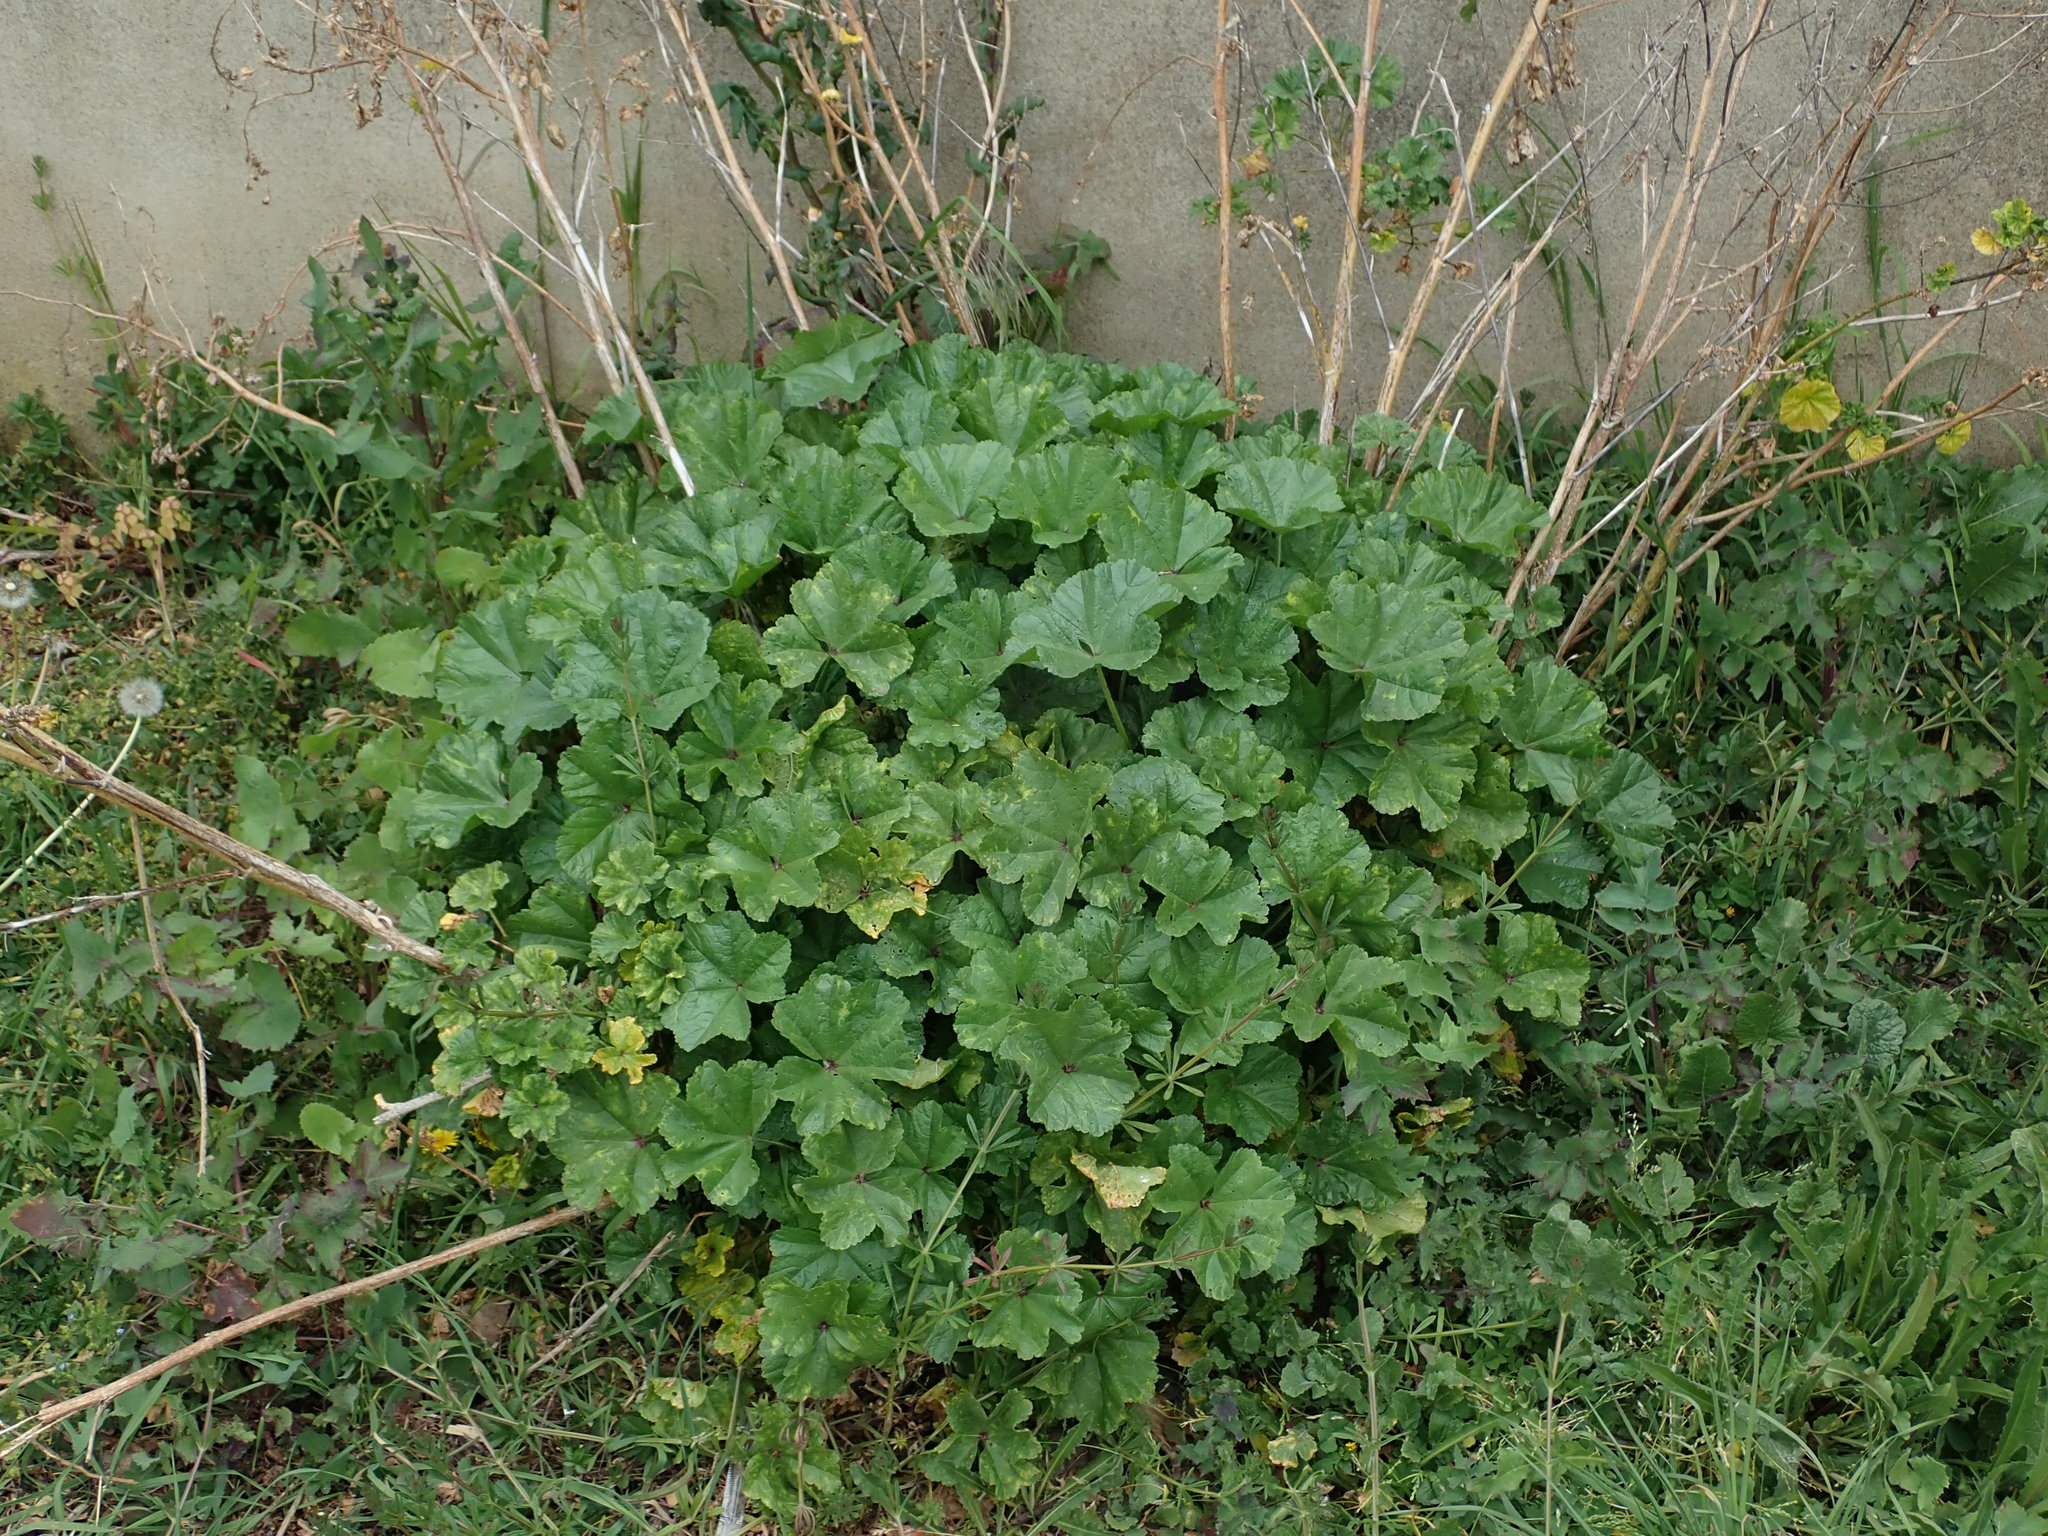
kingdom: Plantae
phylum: Tracheophyta
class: Magnoliopsida
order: Malvales
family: Malvaceae
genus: Malva
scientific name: Malva sylvestris
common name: Common mallow
